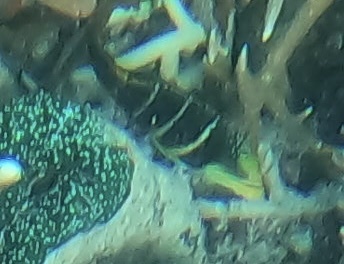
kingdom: Animalia
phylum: Chordata
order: Perciformes
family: Labridae
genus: Hemigymnus
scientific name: Hemigymnus fasciatus
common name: Barred thicklip
